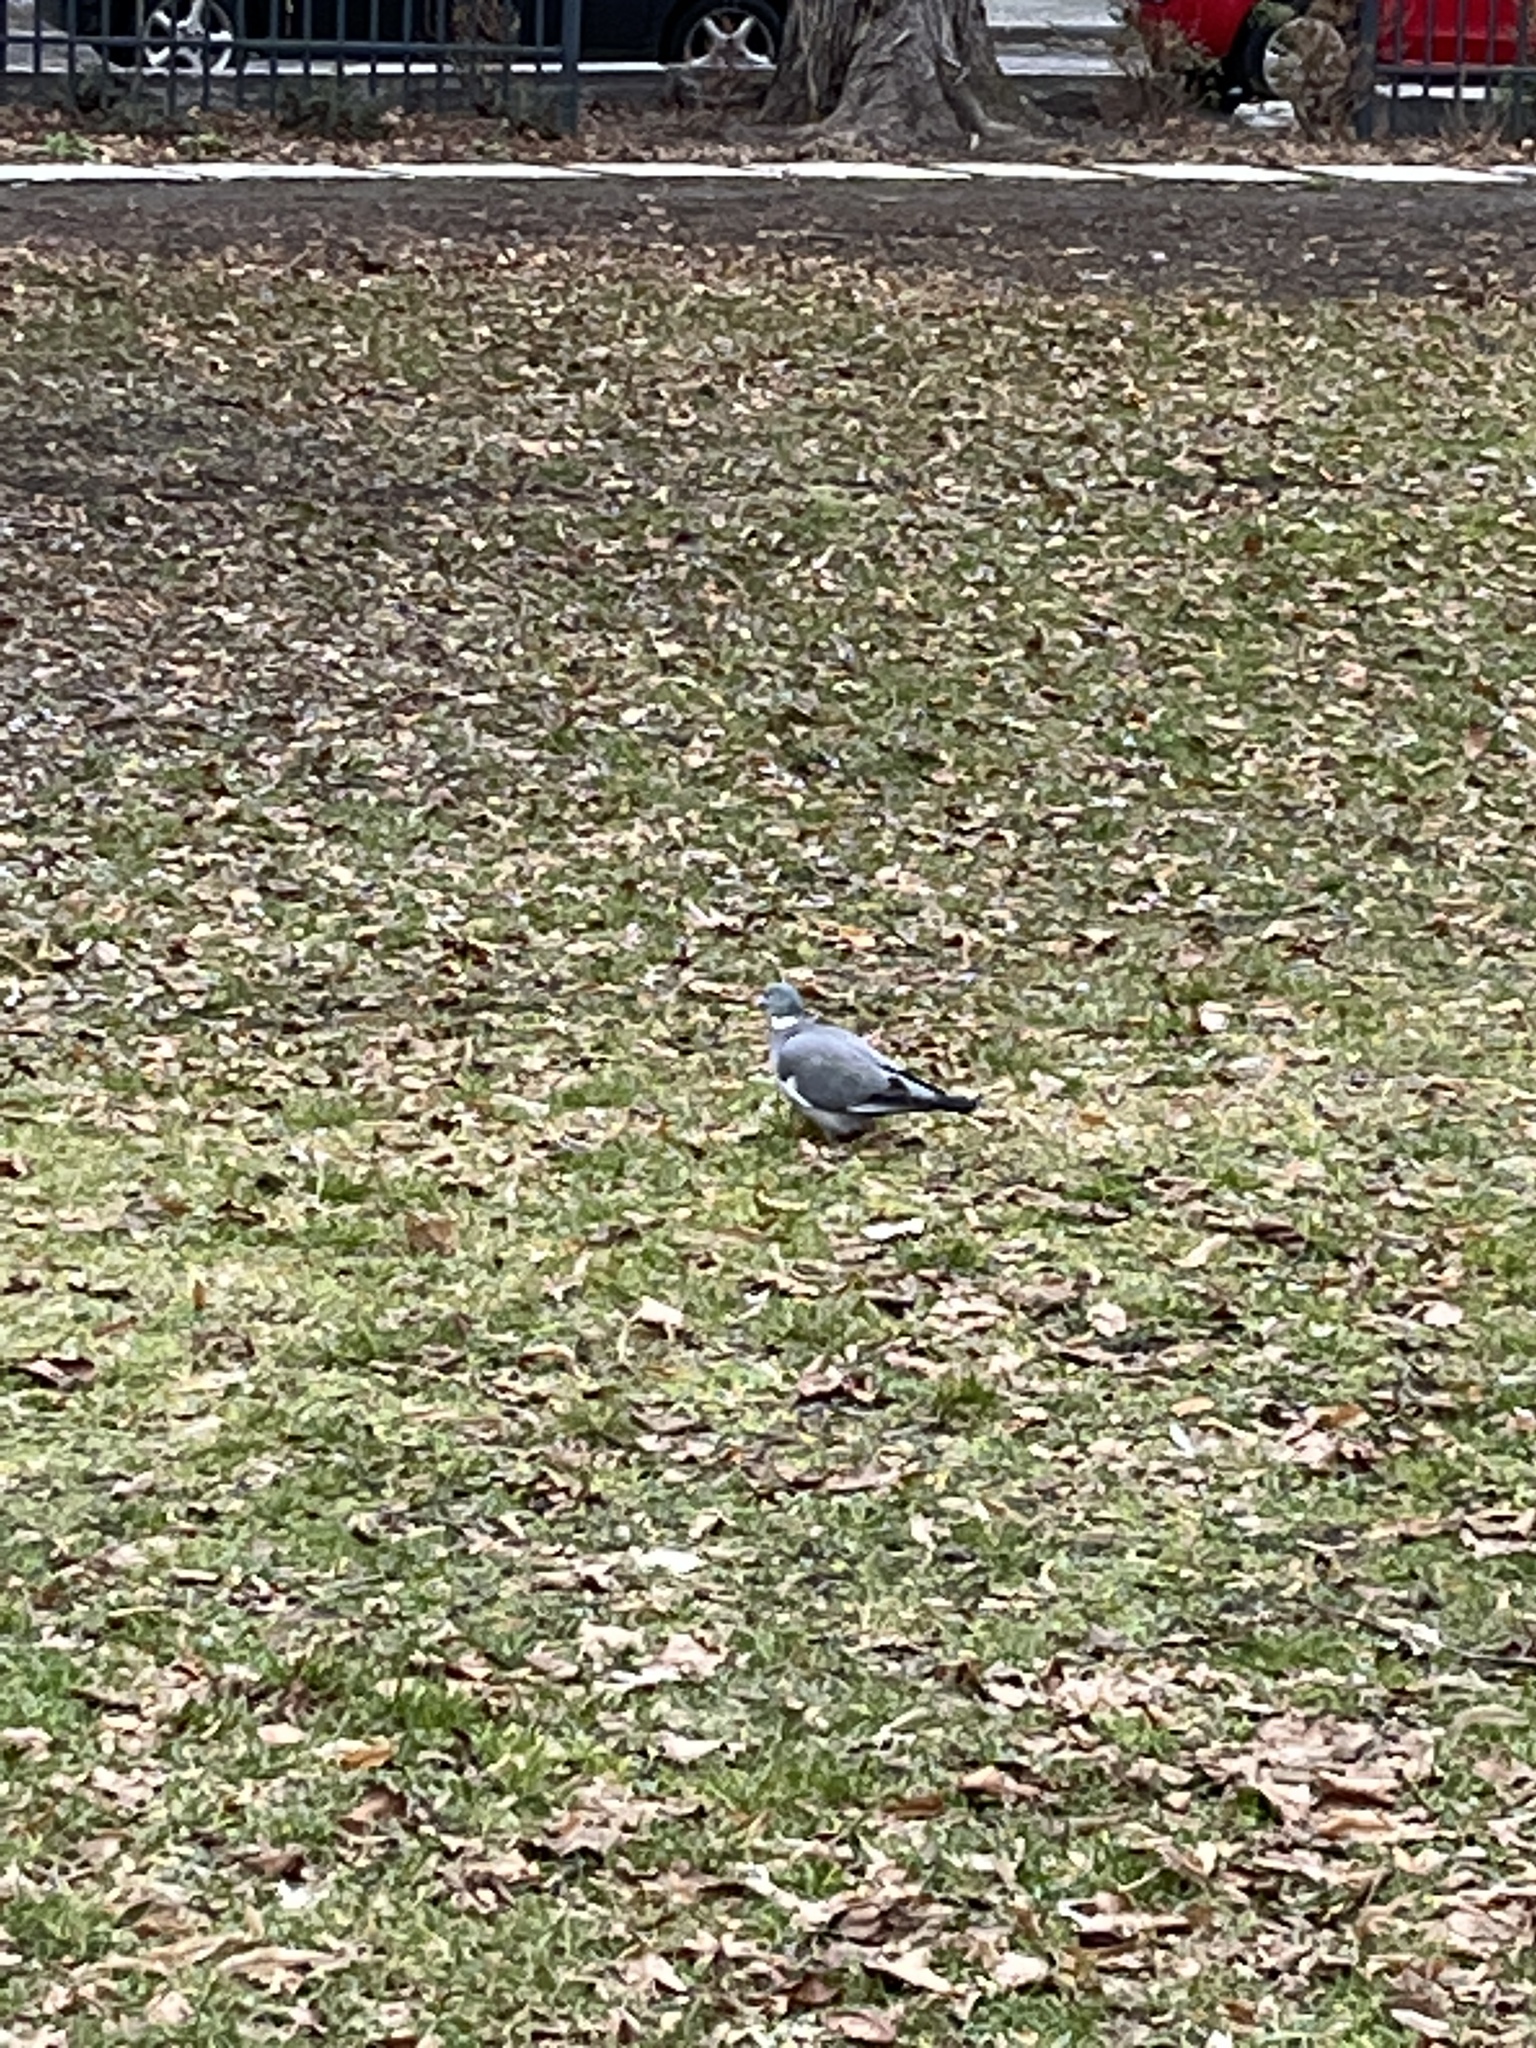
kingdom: Animalia
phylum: Chordata
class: Aves
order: Columbiformes
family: Columbidae
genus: Columba
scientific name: Columba palumbus
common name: Common wood pigeon
